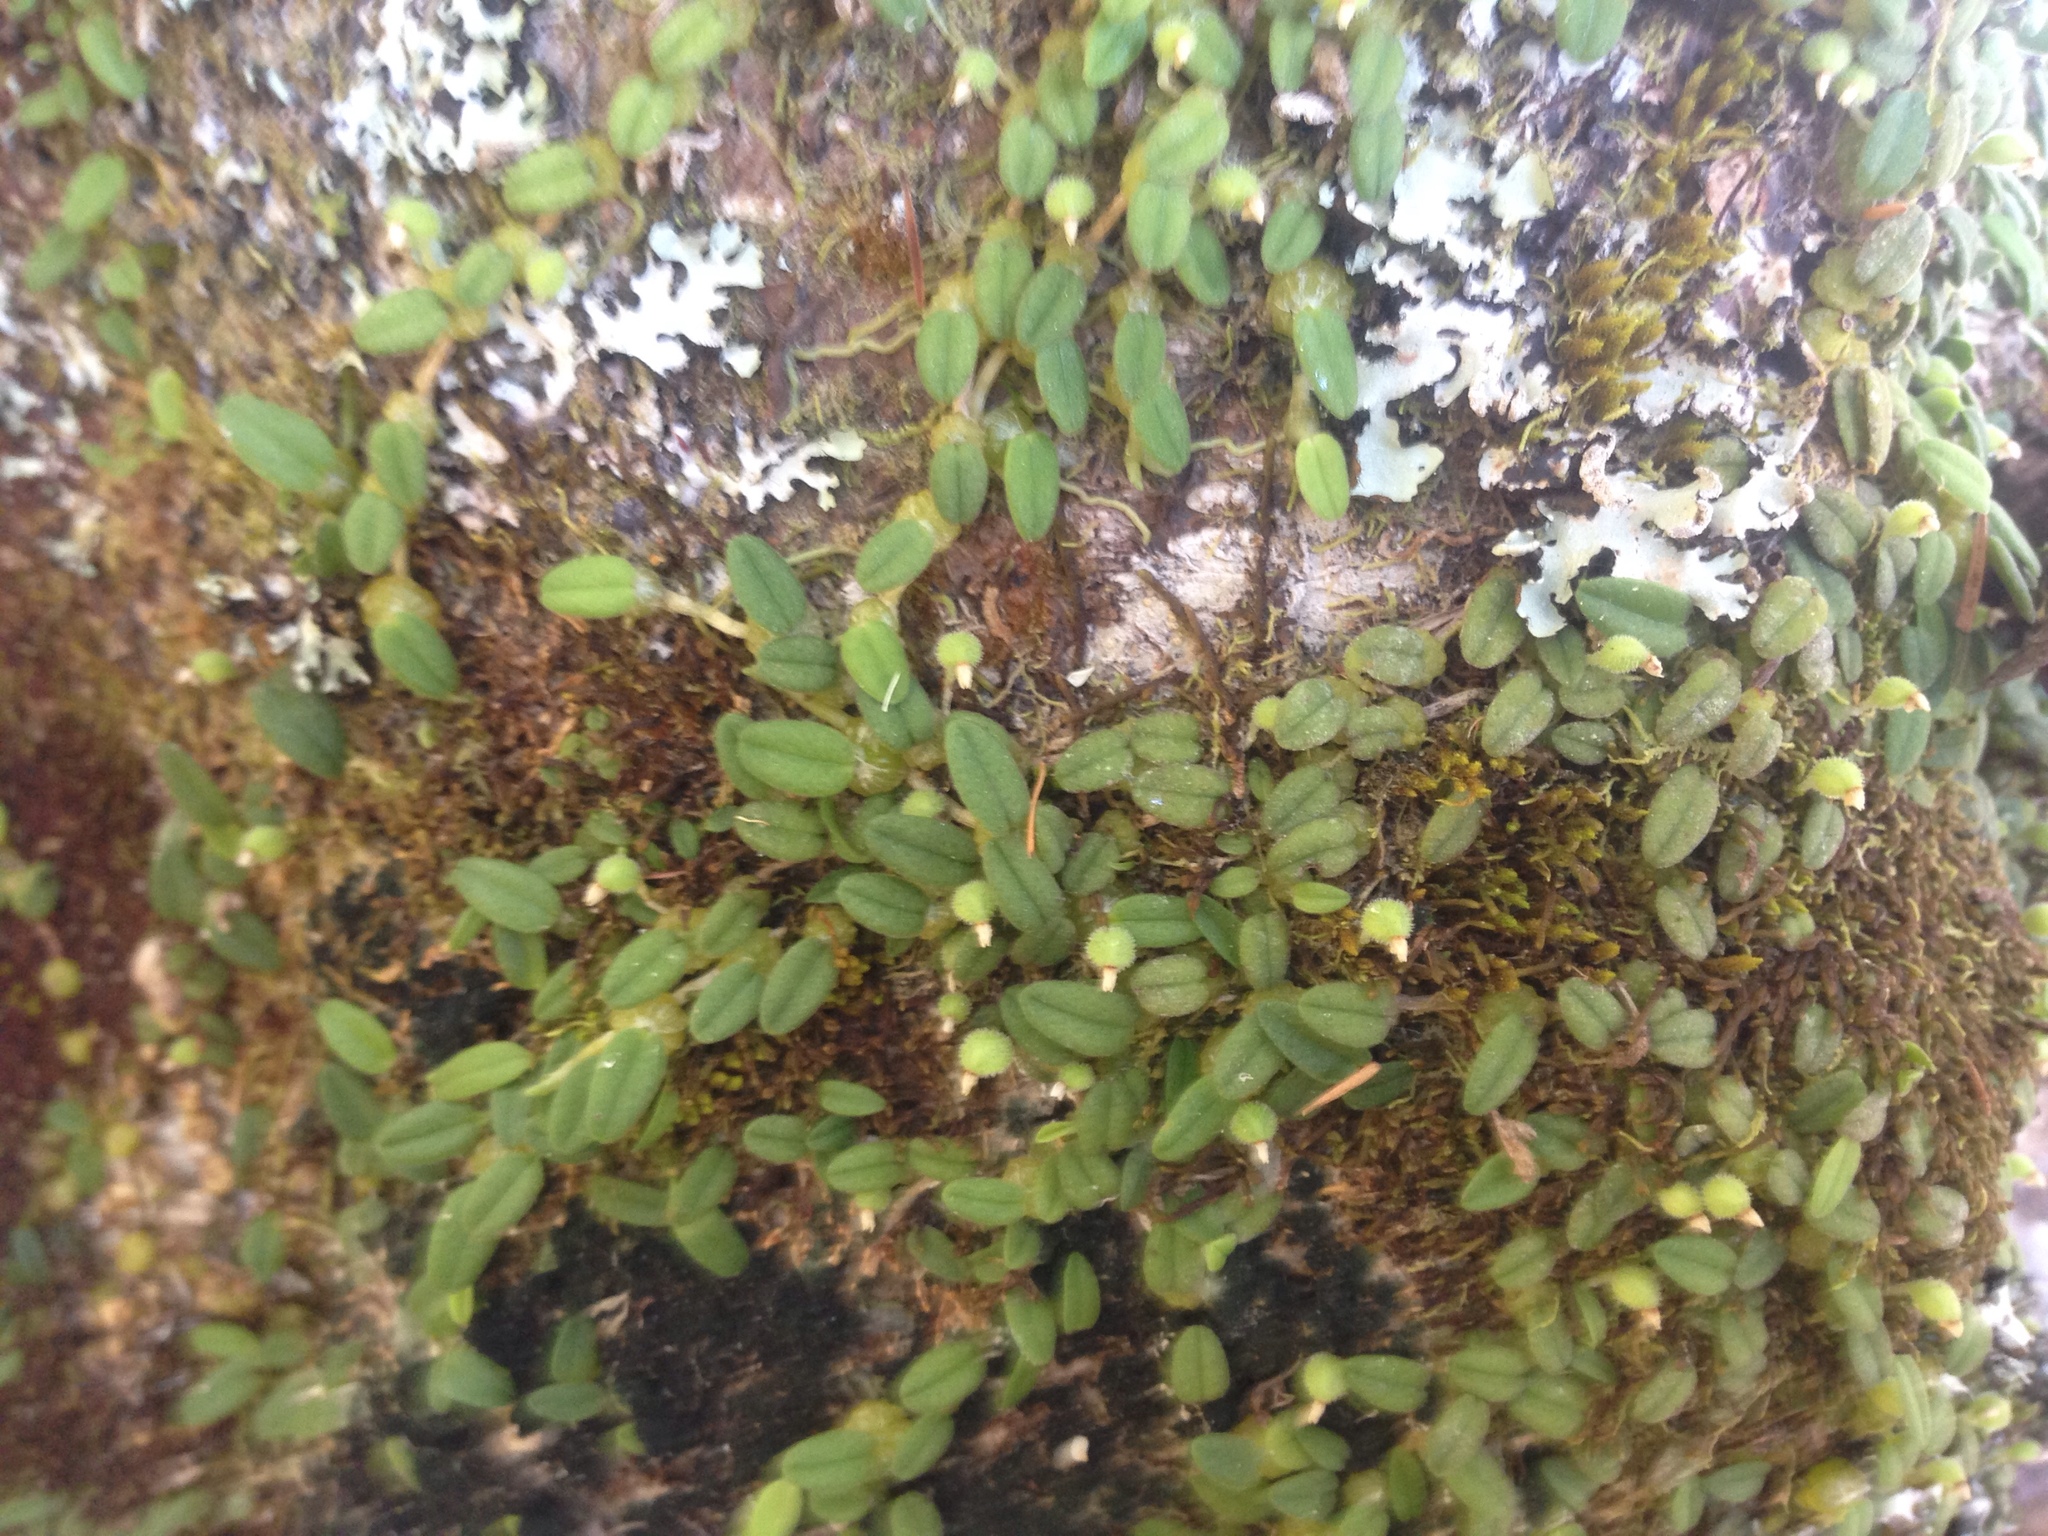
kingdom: Plantae
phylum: Tracheophyta
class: Liliopsida
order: Asparagales
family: Orchidaceae
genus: Bulbophyllum
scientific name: Bulbophyllum pygmaeum
